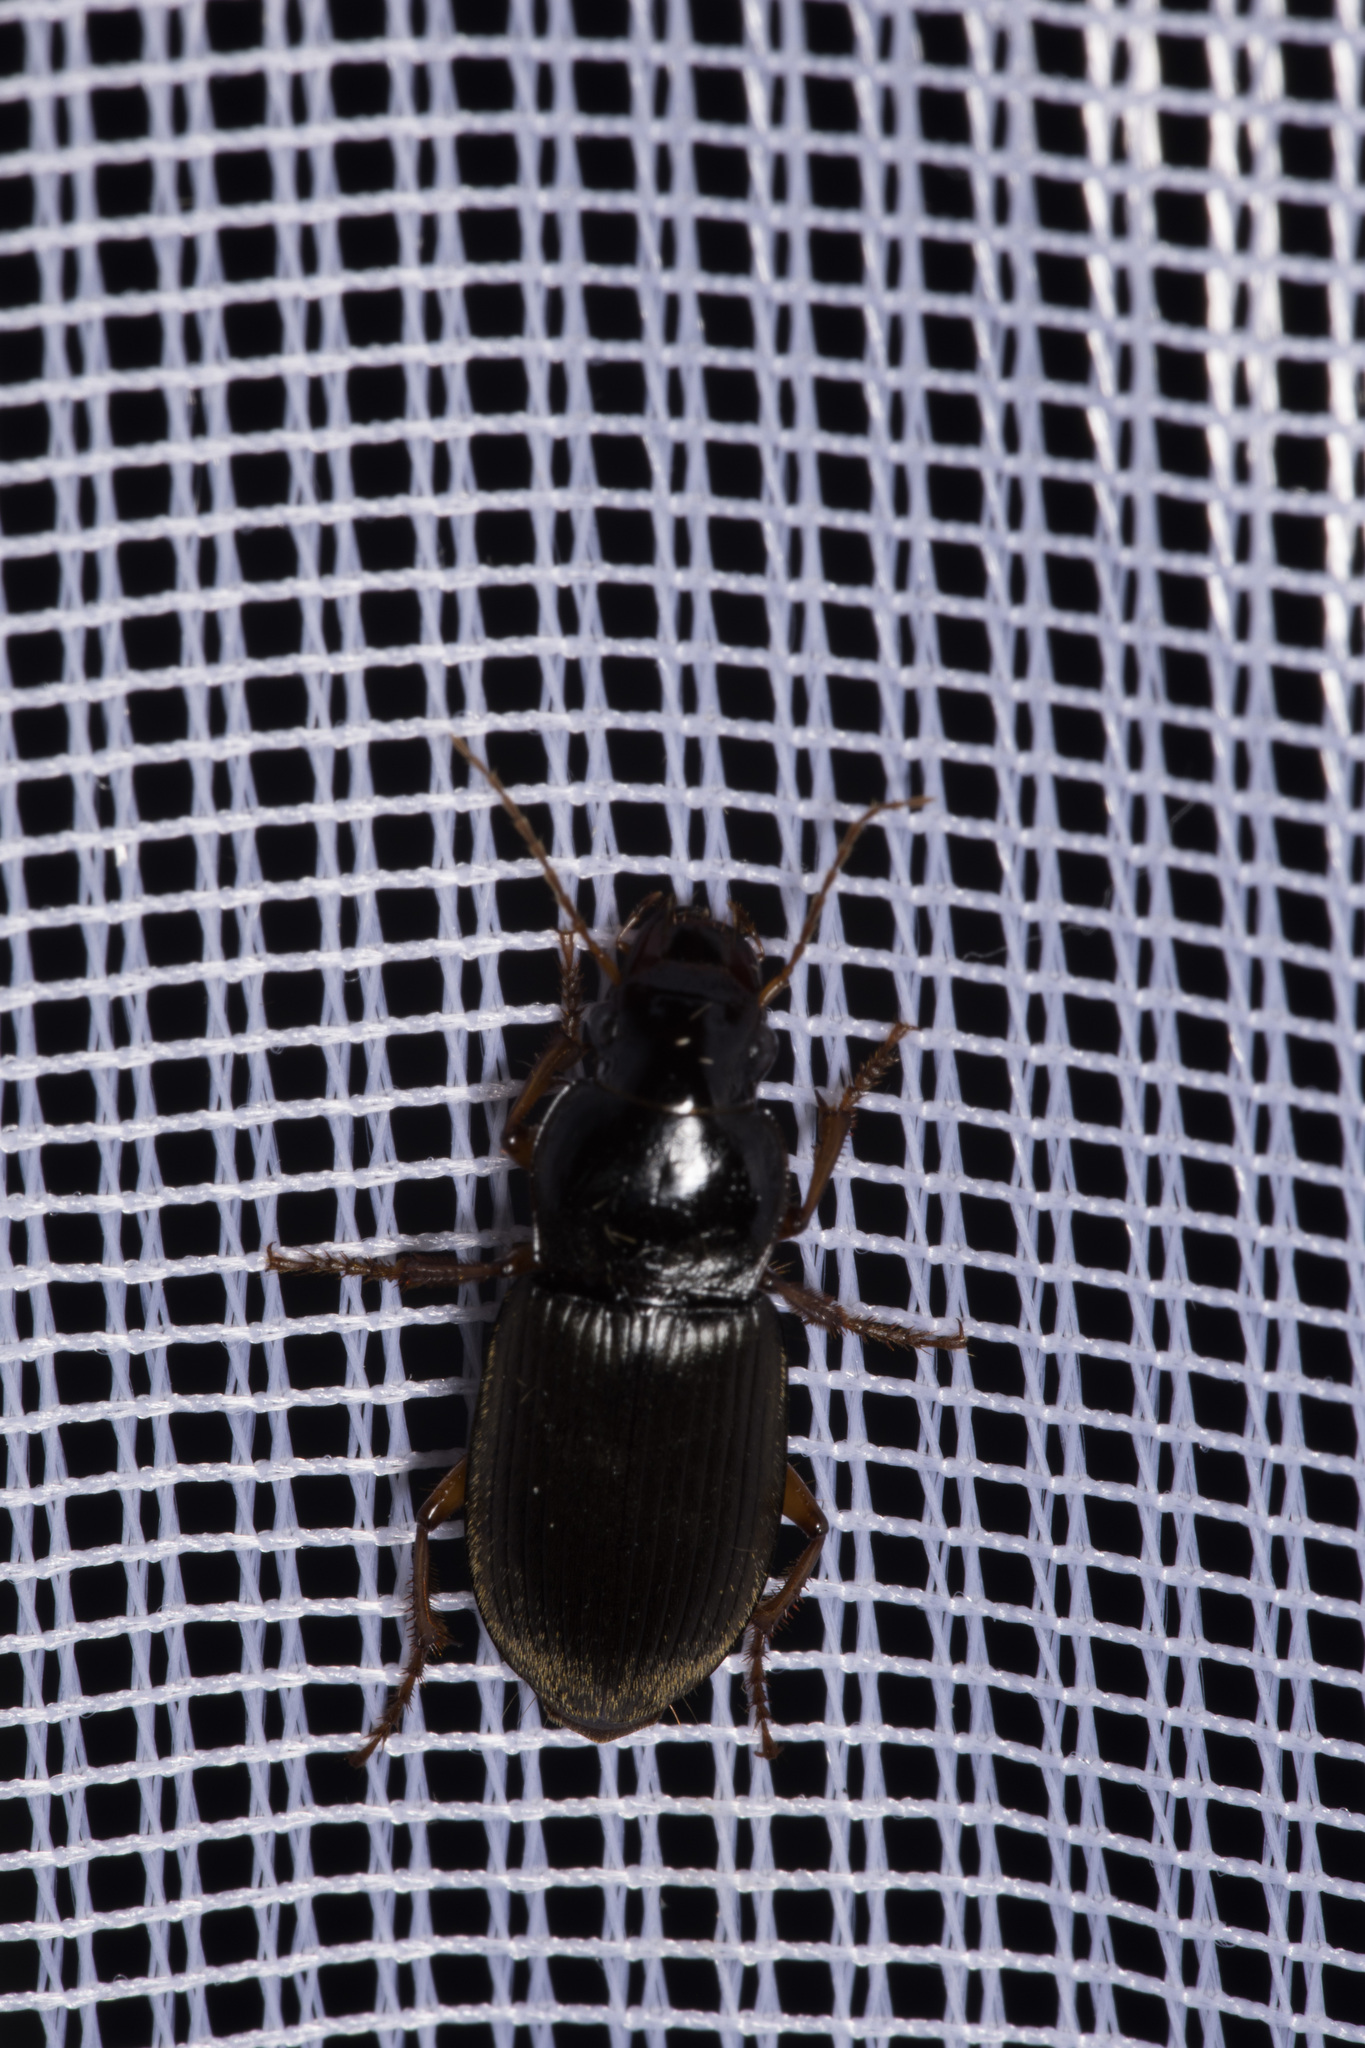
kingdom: Animalia
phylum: Arthropoda
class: Insecta
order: Coleoptera
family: Carabidae
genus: Harpalus
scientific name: Harpalus rufipes
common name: Strawberry harp ground beetle
